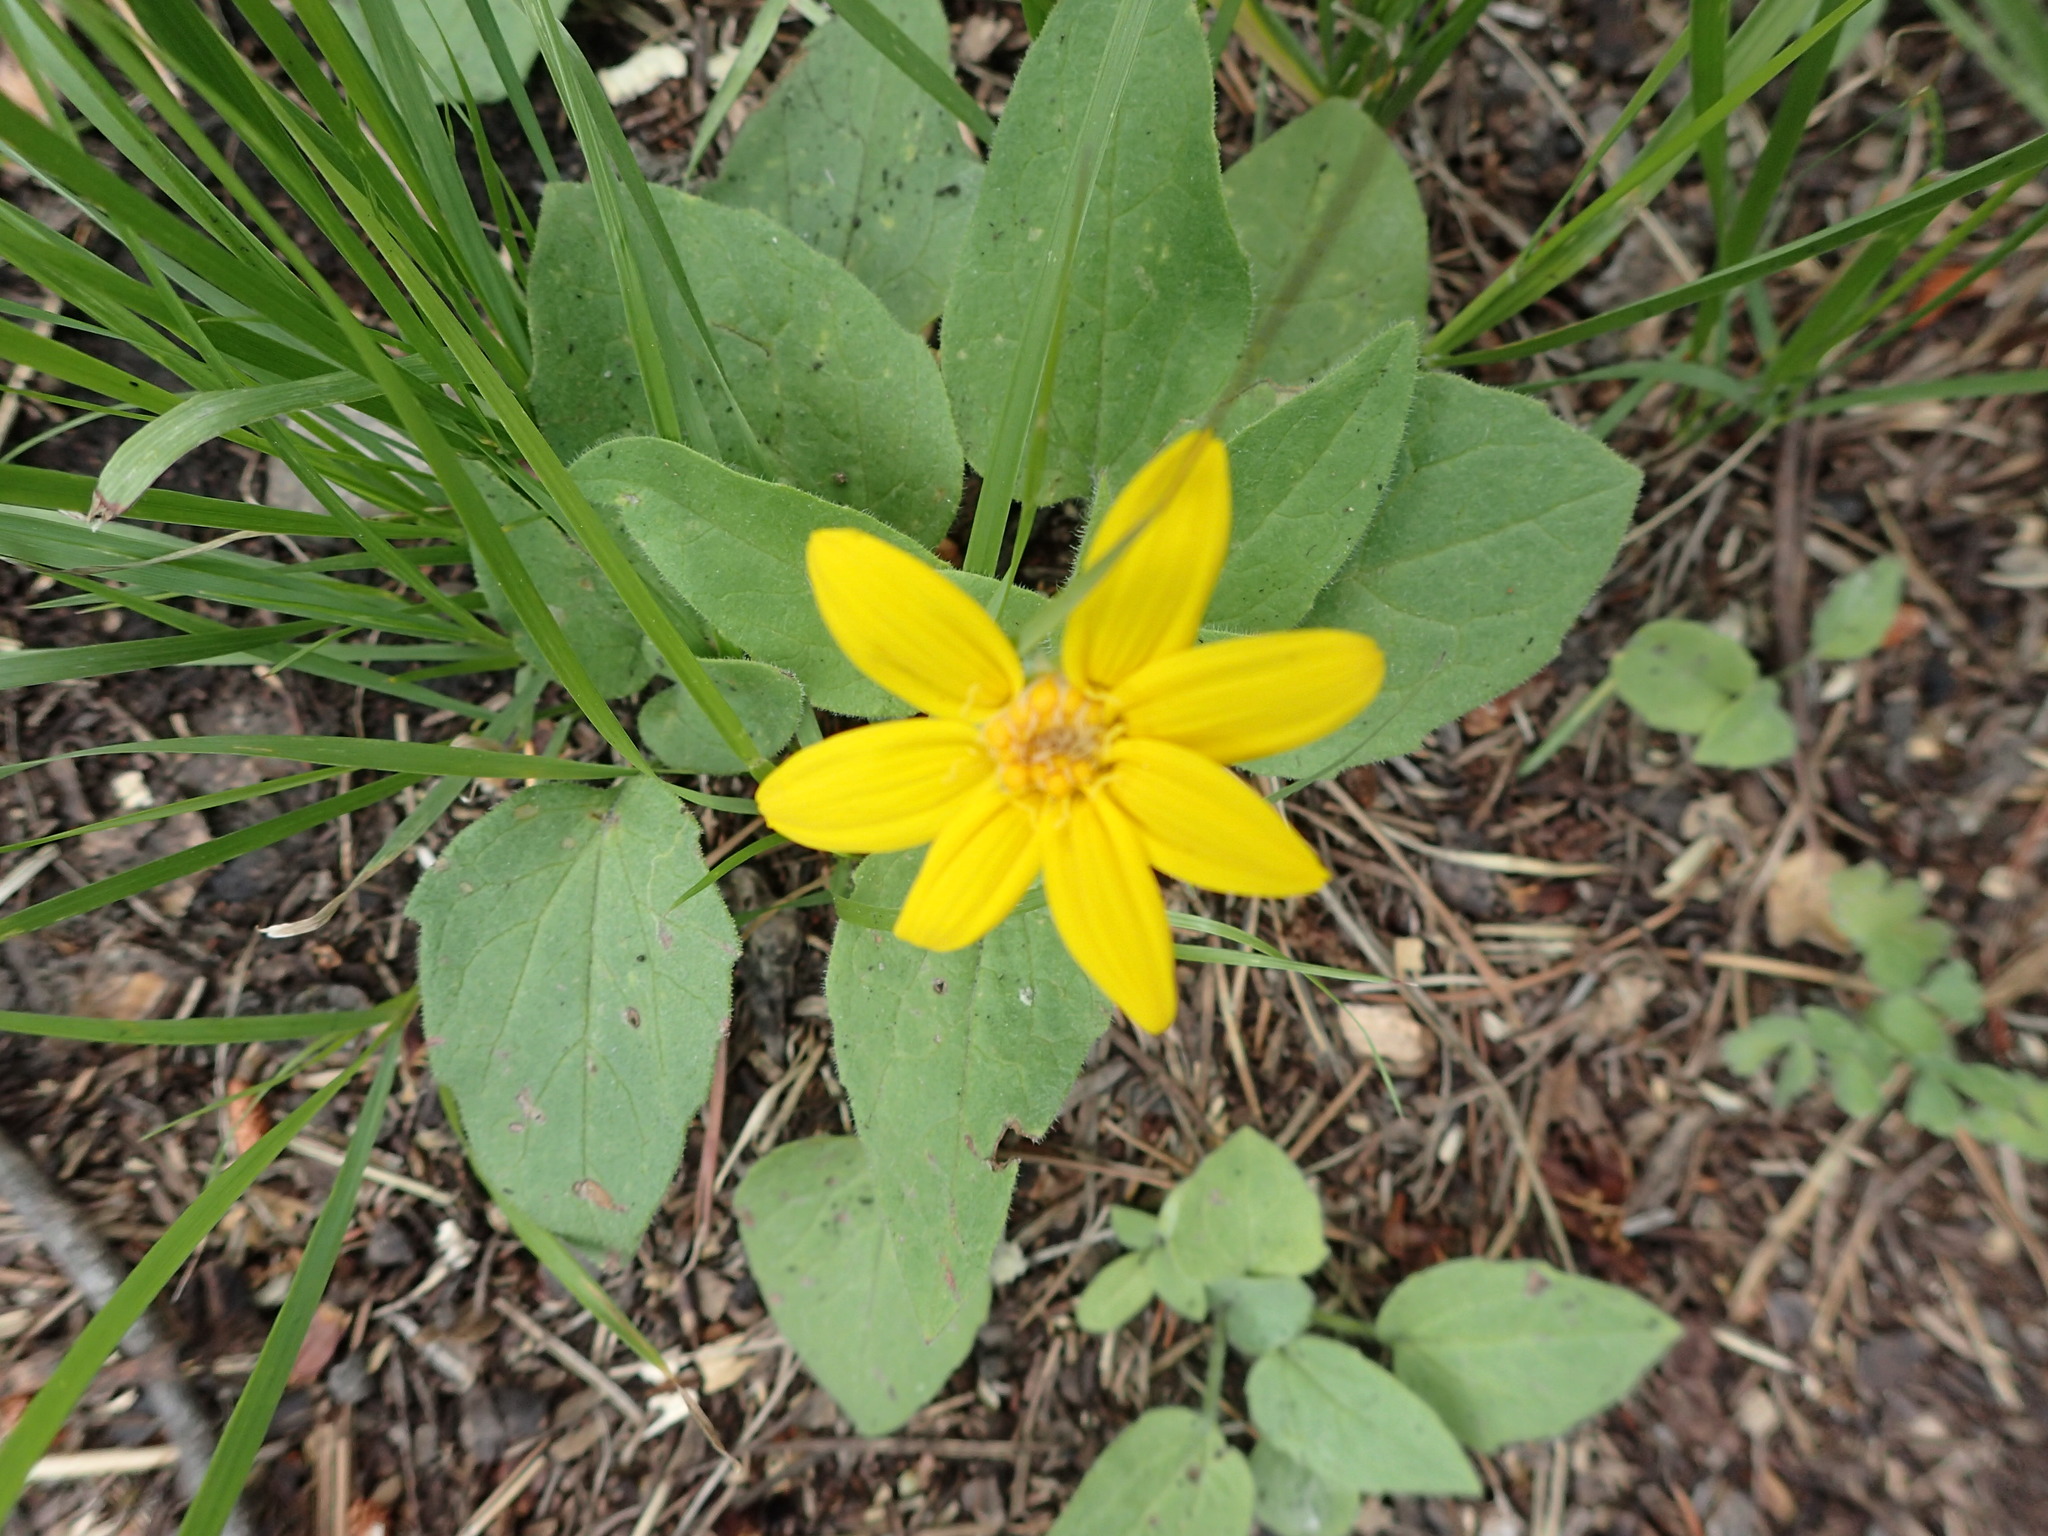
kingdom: Plantae
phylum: Tracheophyta
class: Magnoliopsida
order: Asterales
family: Asteraceae
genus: Arnica
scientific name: Arnica cordifolia
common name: Heart-leaf arnica
